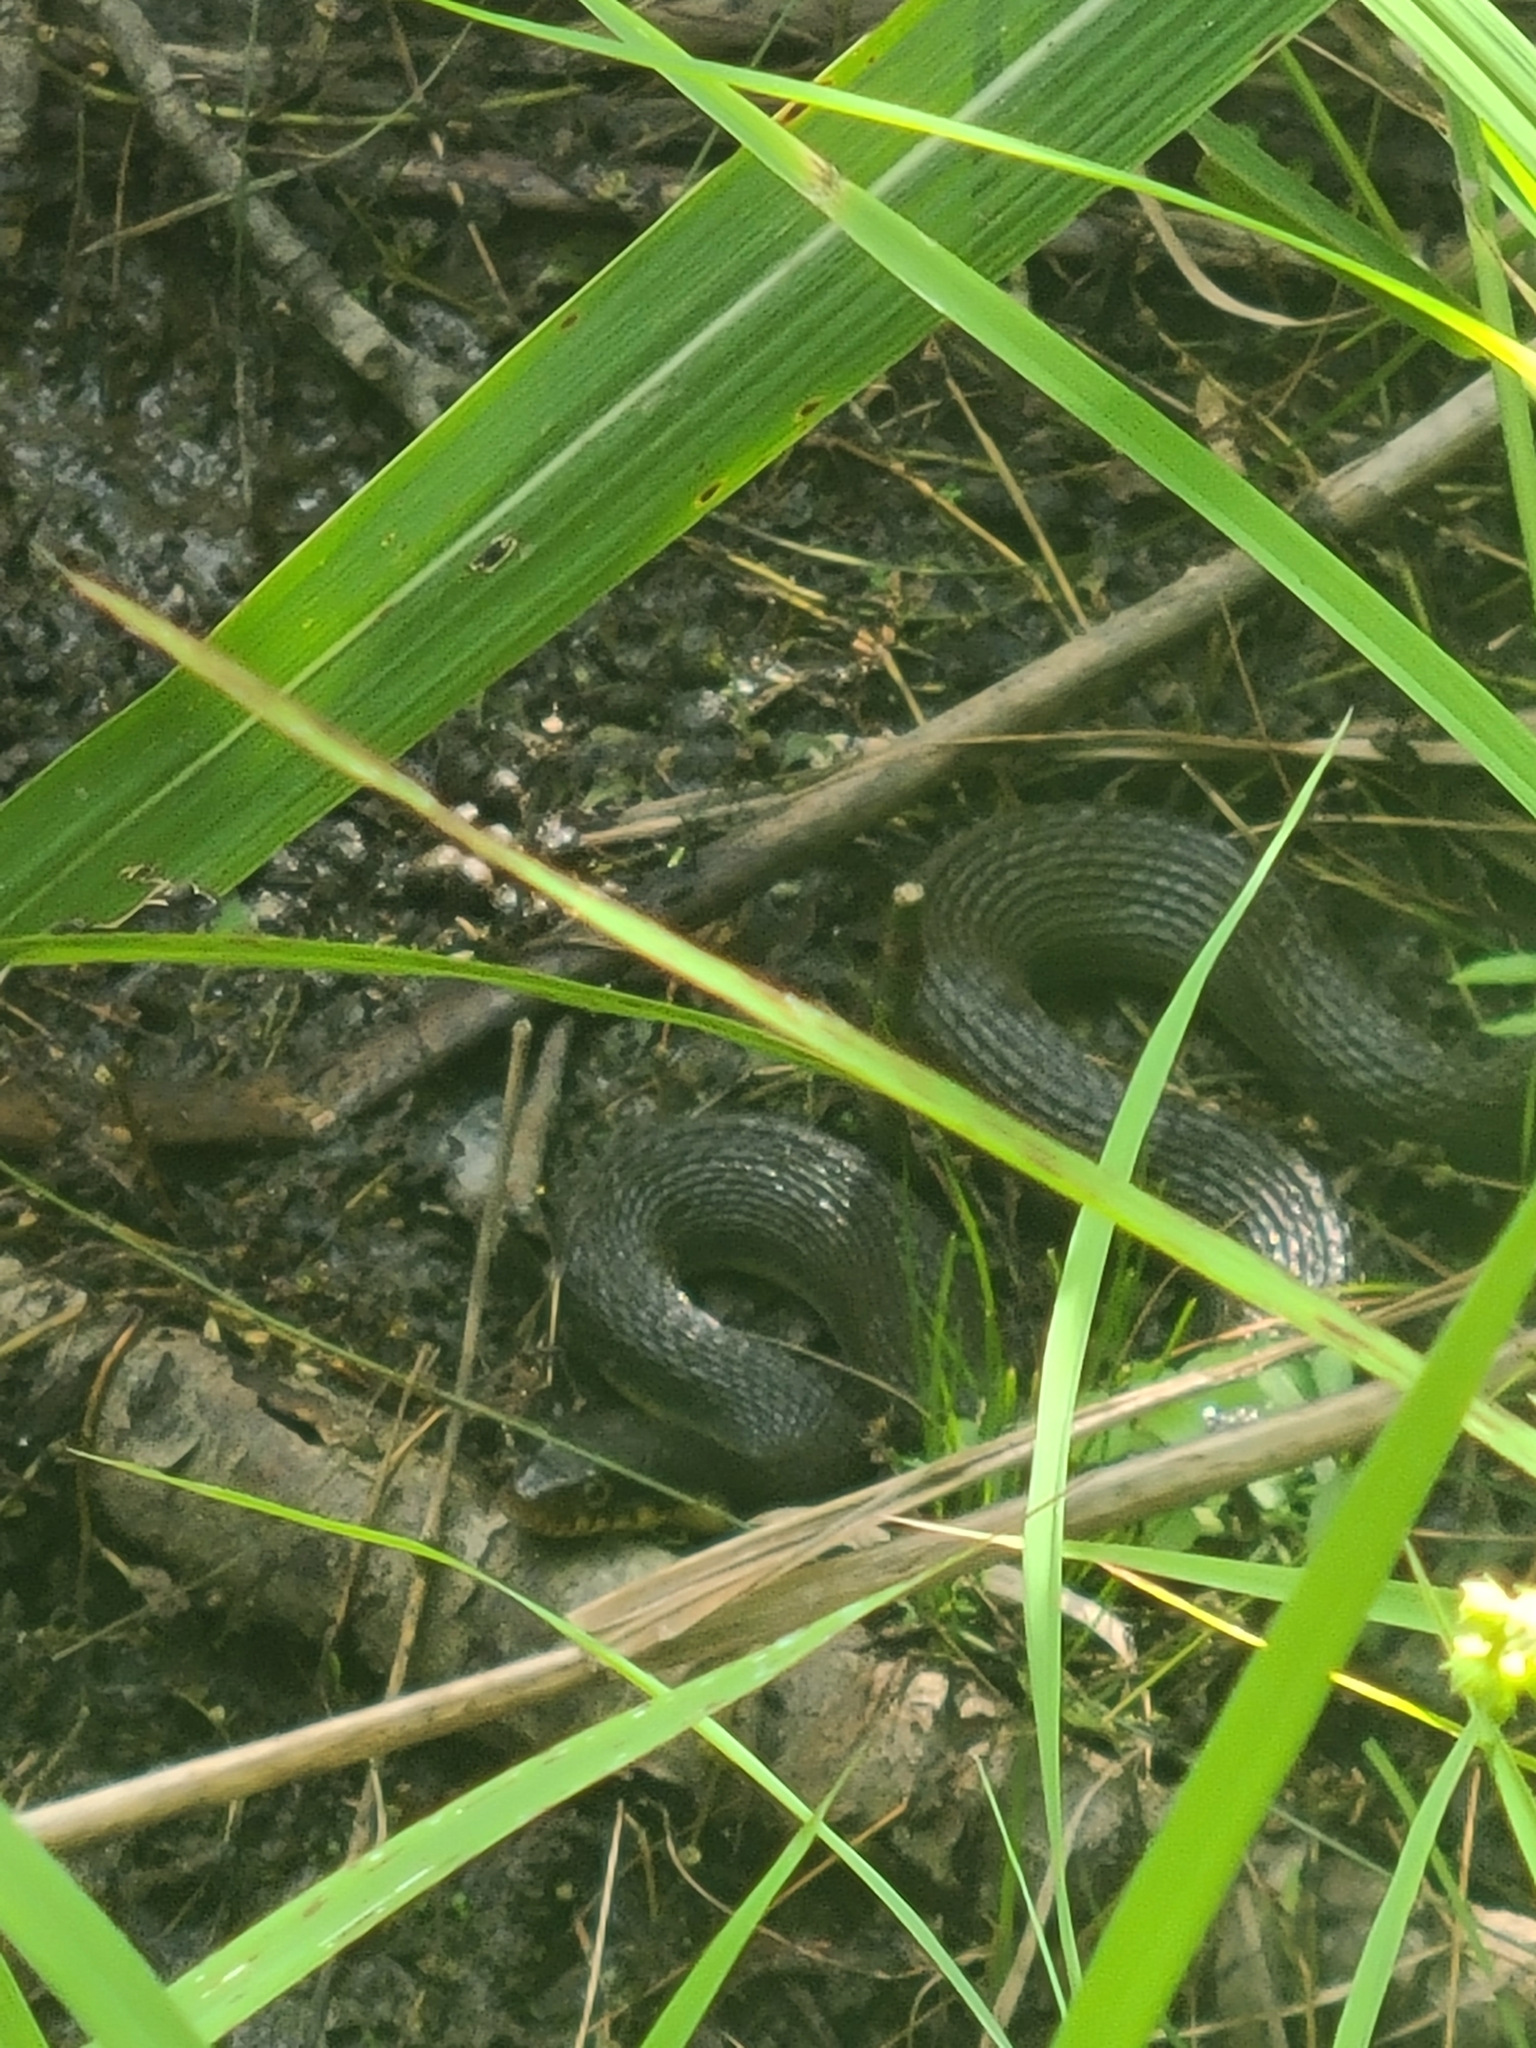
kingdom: Animalia
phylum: Chordata
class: Squamata
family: Colubridae
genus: Nerodia
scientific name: Nerodia erythrogaster
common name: Plainbelly water snake
